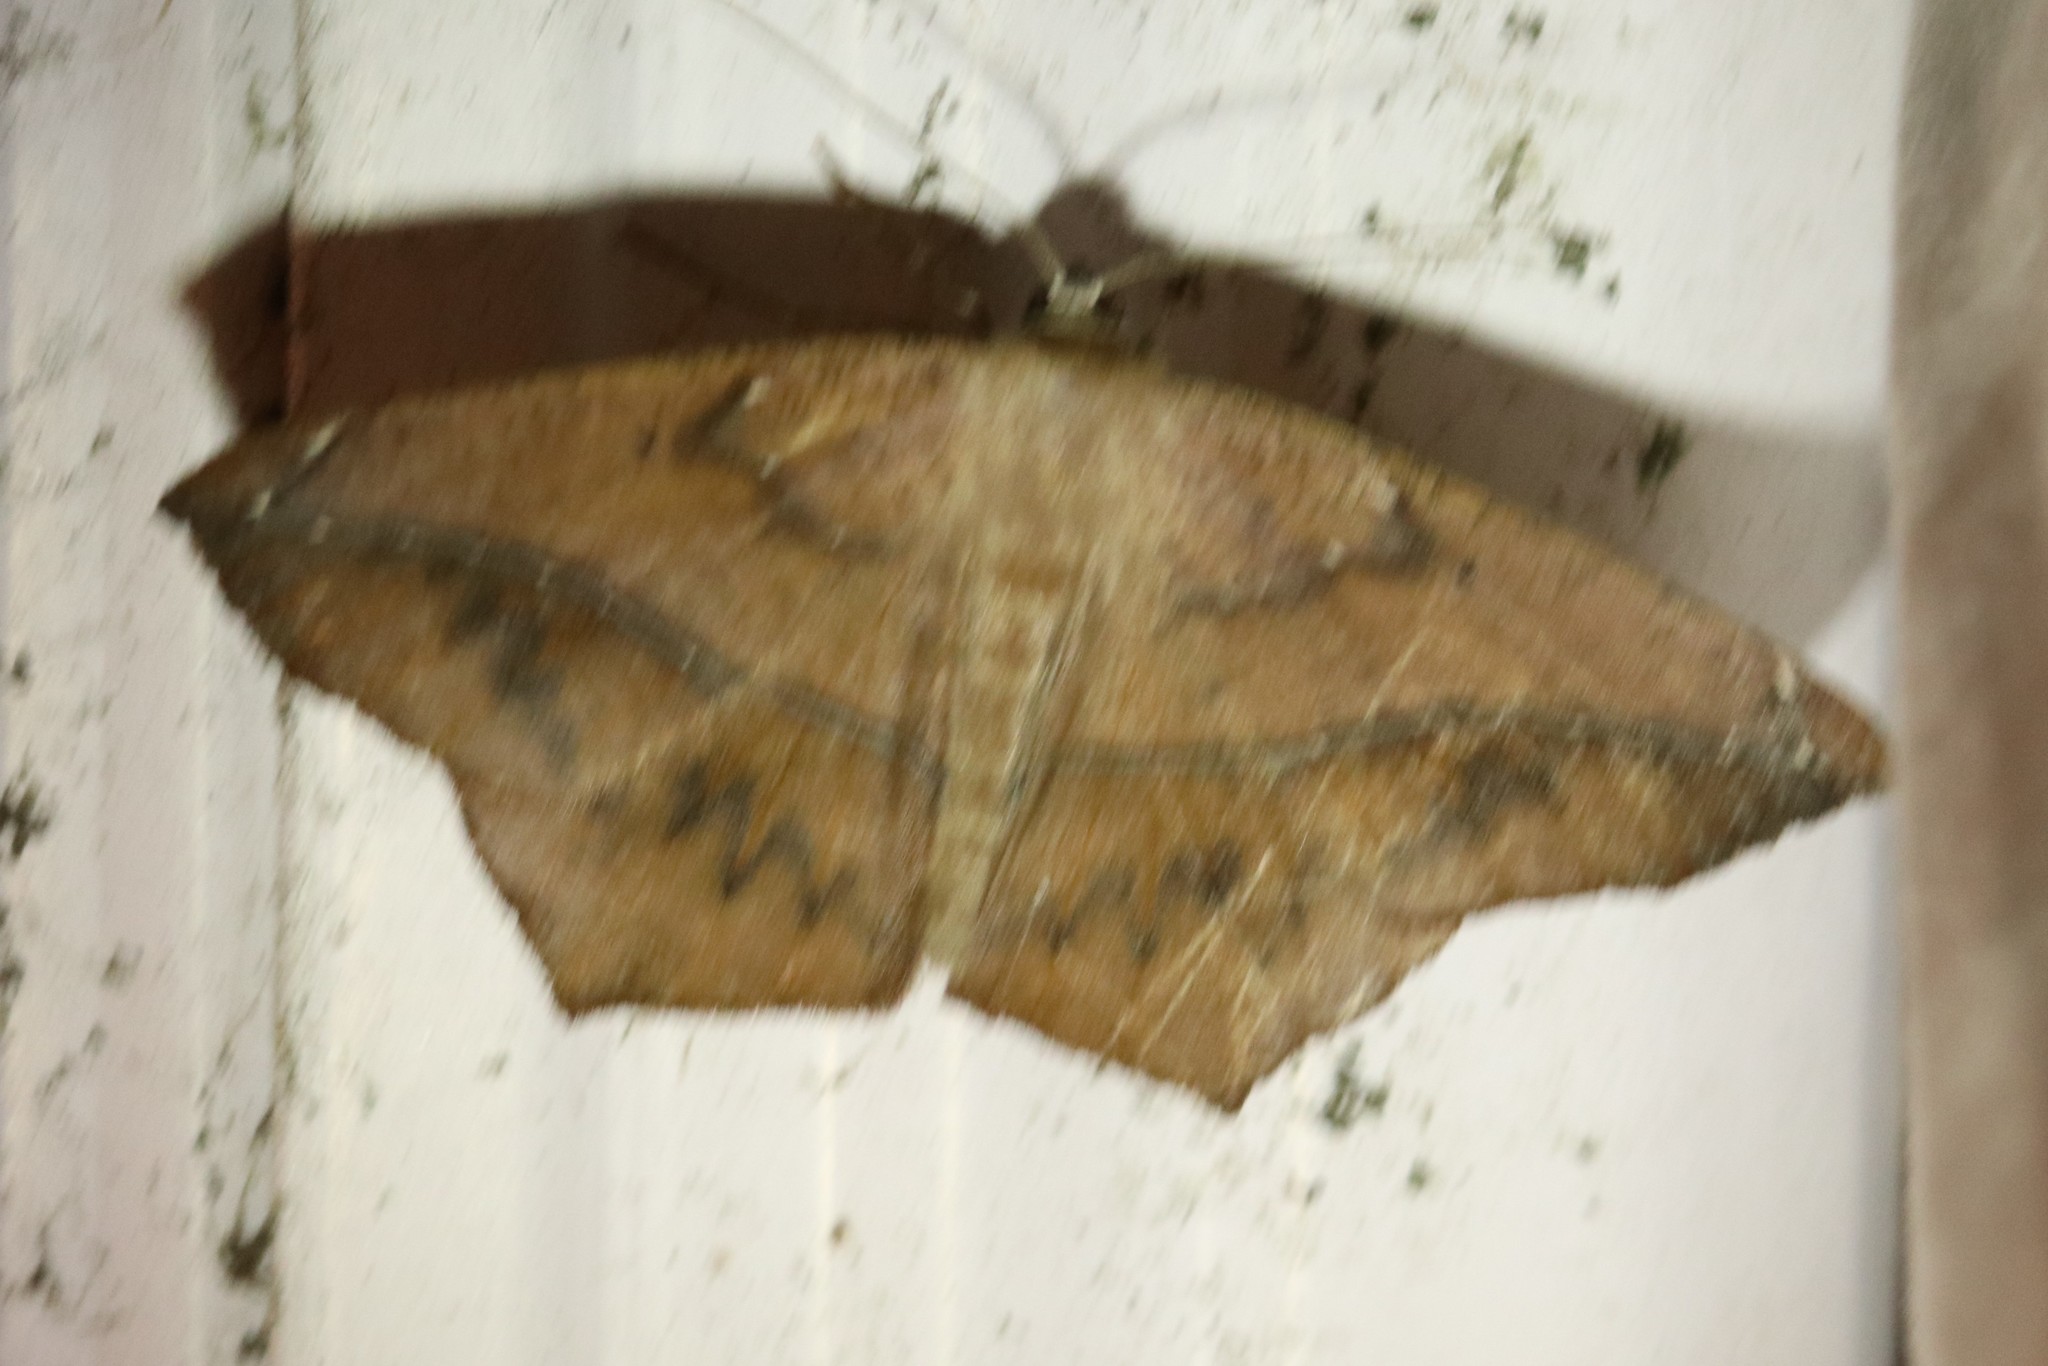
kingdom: Animalia
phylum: Arthropoda
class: Insecta
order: Lepidoptera
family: Geometridae
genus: Prochoerodes
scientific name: Prochoerodes lineola
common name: Large maple spanworm
